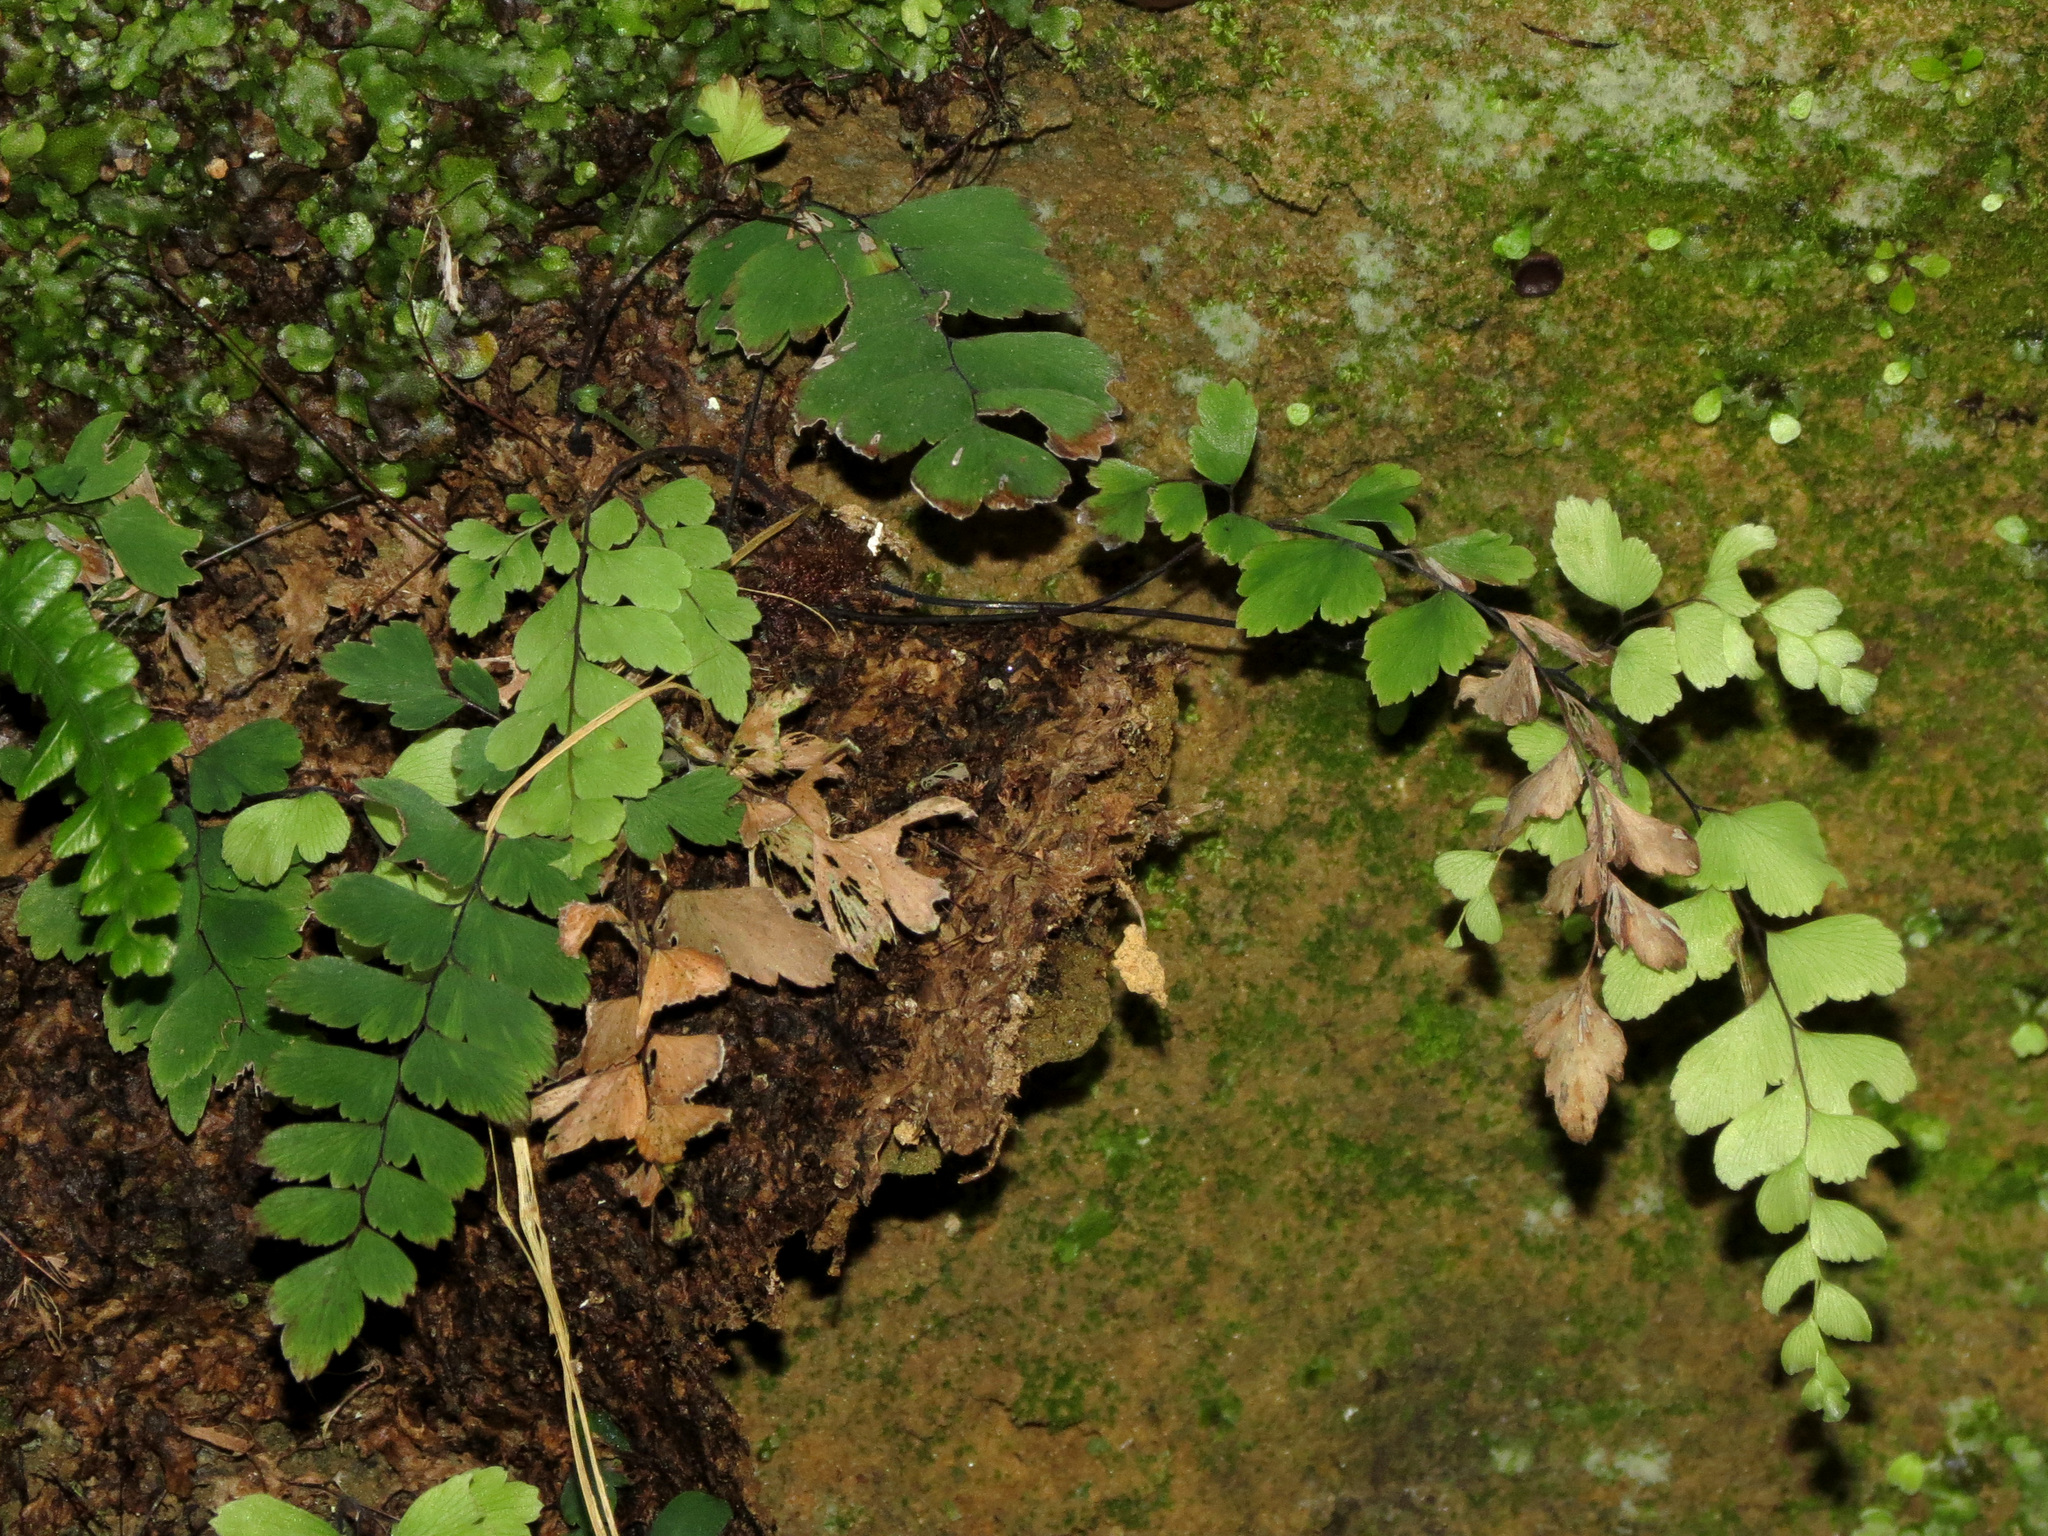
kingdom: Plantae
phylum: Tracheophyta
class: Polypodiopsida
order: Polypodiales
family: Pteridaceae
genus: Adiantum
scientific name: Adiantum cunninghamii
